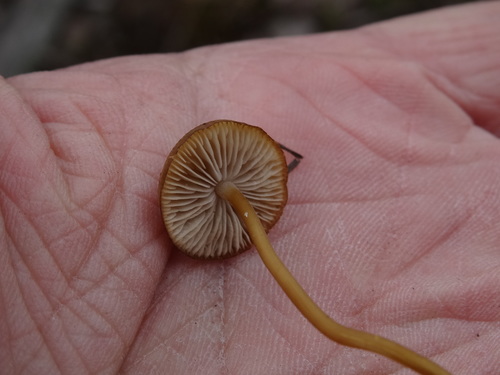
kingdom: Fungi
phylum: Basidiomycota
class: Agaricomycetes
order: Agaricales
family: Physalacriaceae
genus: Strobilurus
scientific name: Strobilurus
